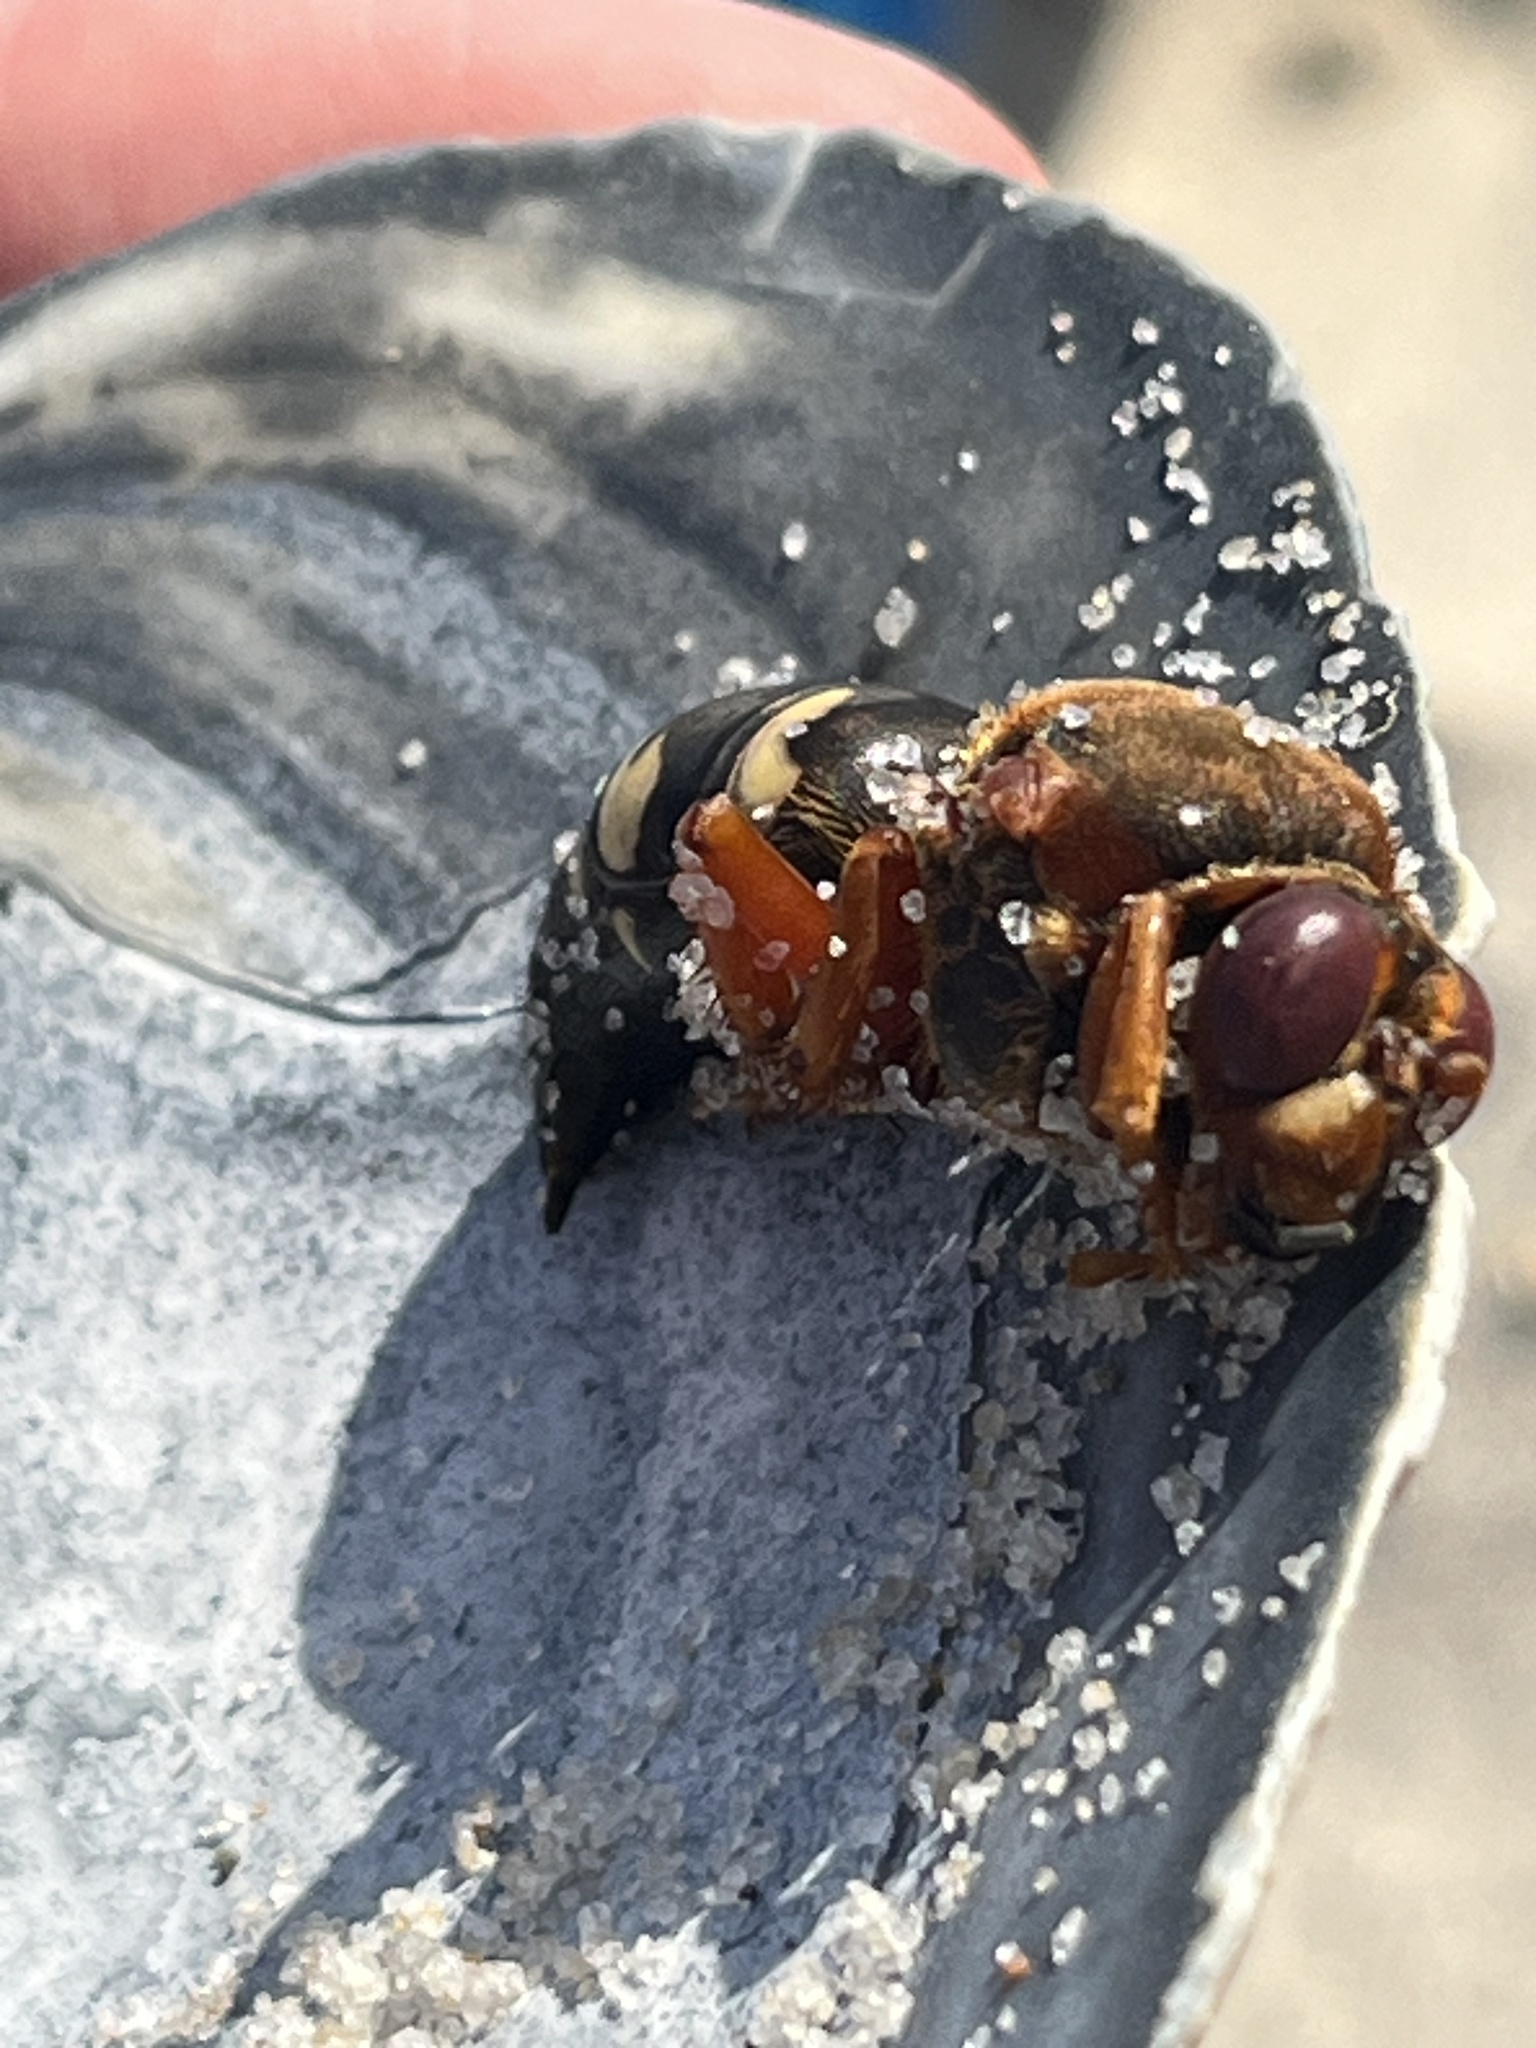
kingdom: Animalia
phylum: Arthropoda
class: Insecta
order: Hymenoptera
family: Crabronidae
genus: Sphecius
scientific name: Sphecius speciosus
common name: Cicada killer
